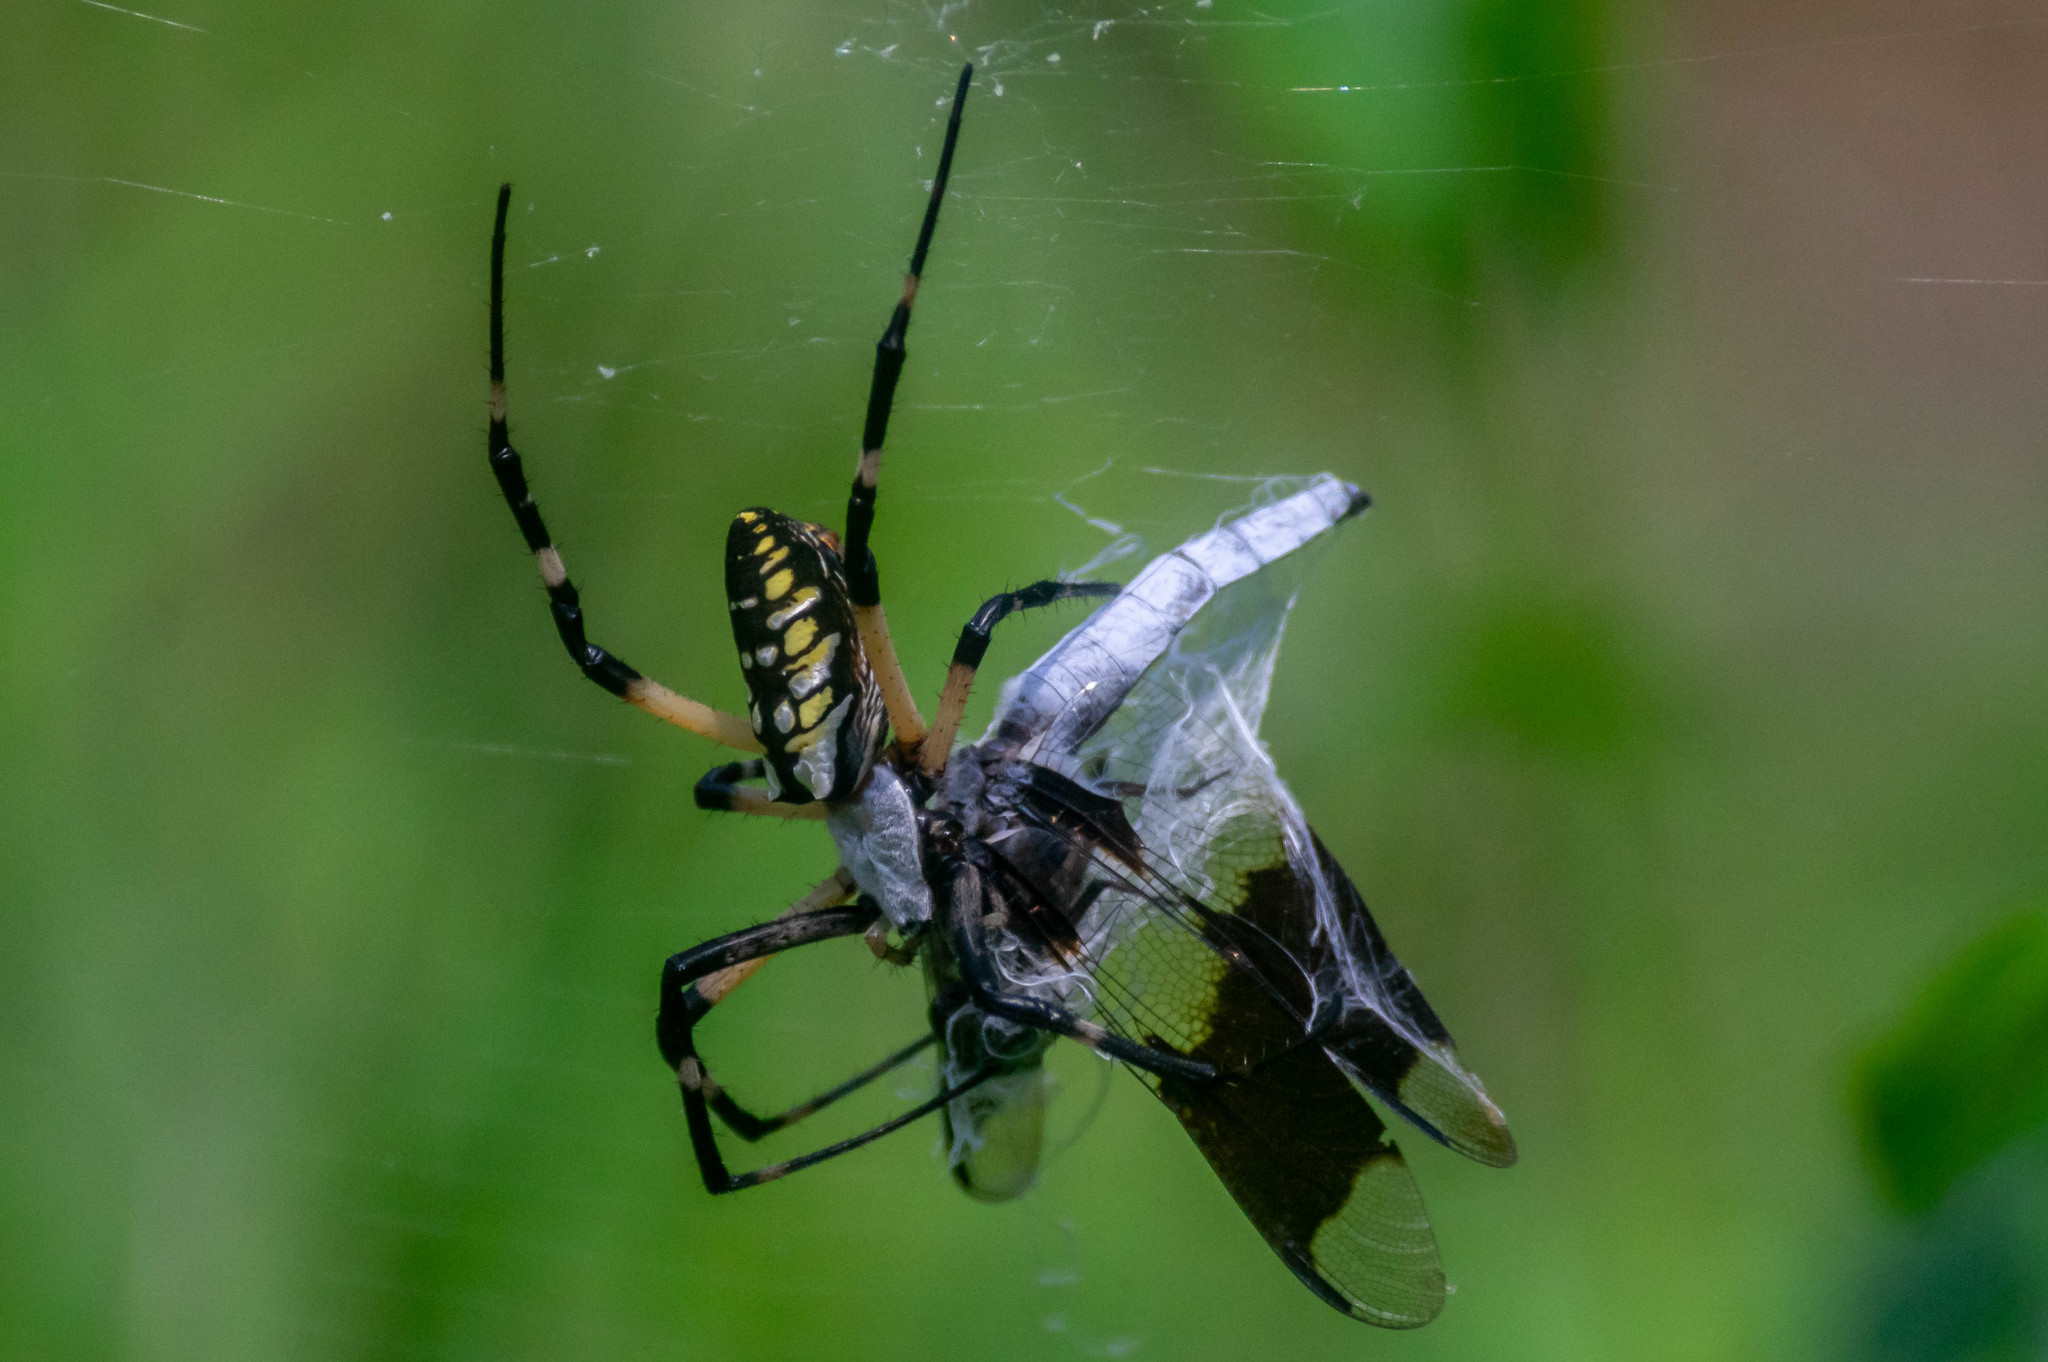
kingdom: Animalia
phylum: Arthropoda
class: Arachnida
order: Araneae
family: Araneidae
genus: Argiope
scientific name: Argiope aurantia
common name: Orb weavers
